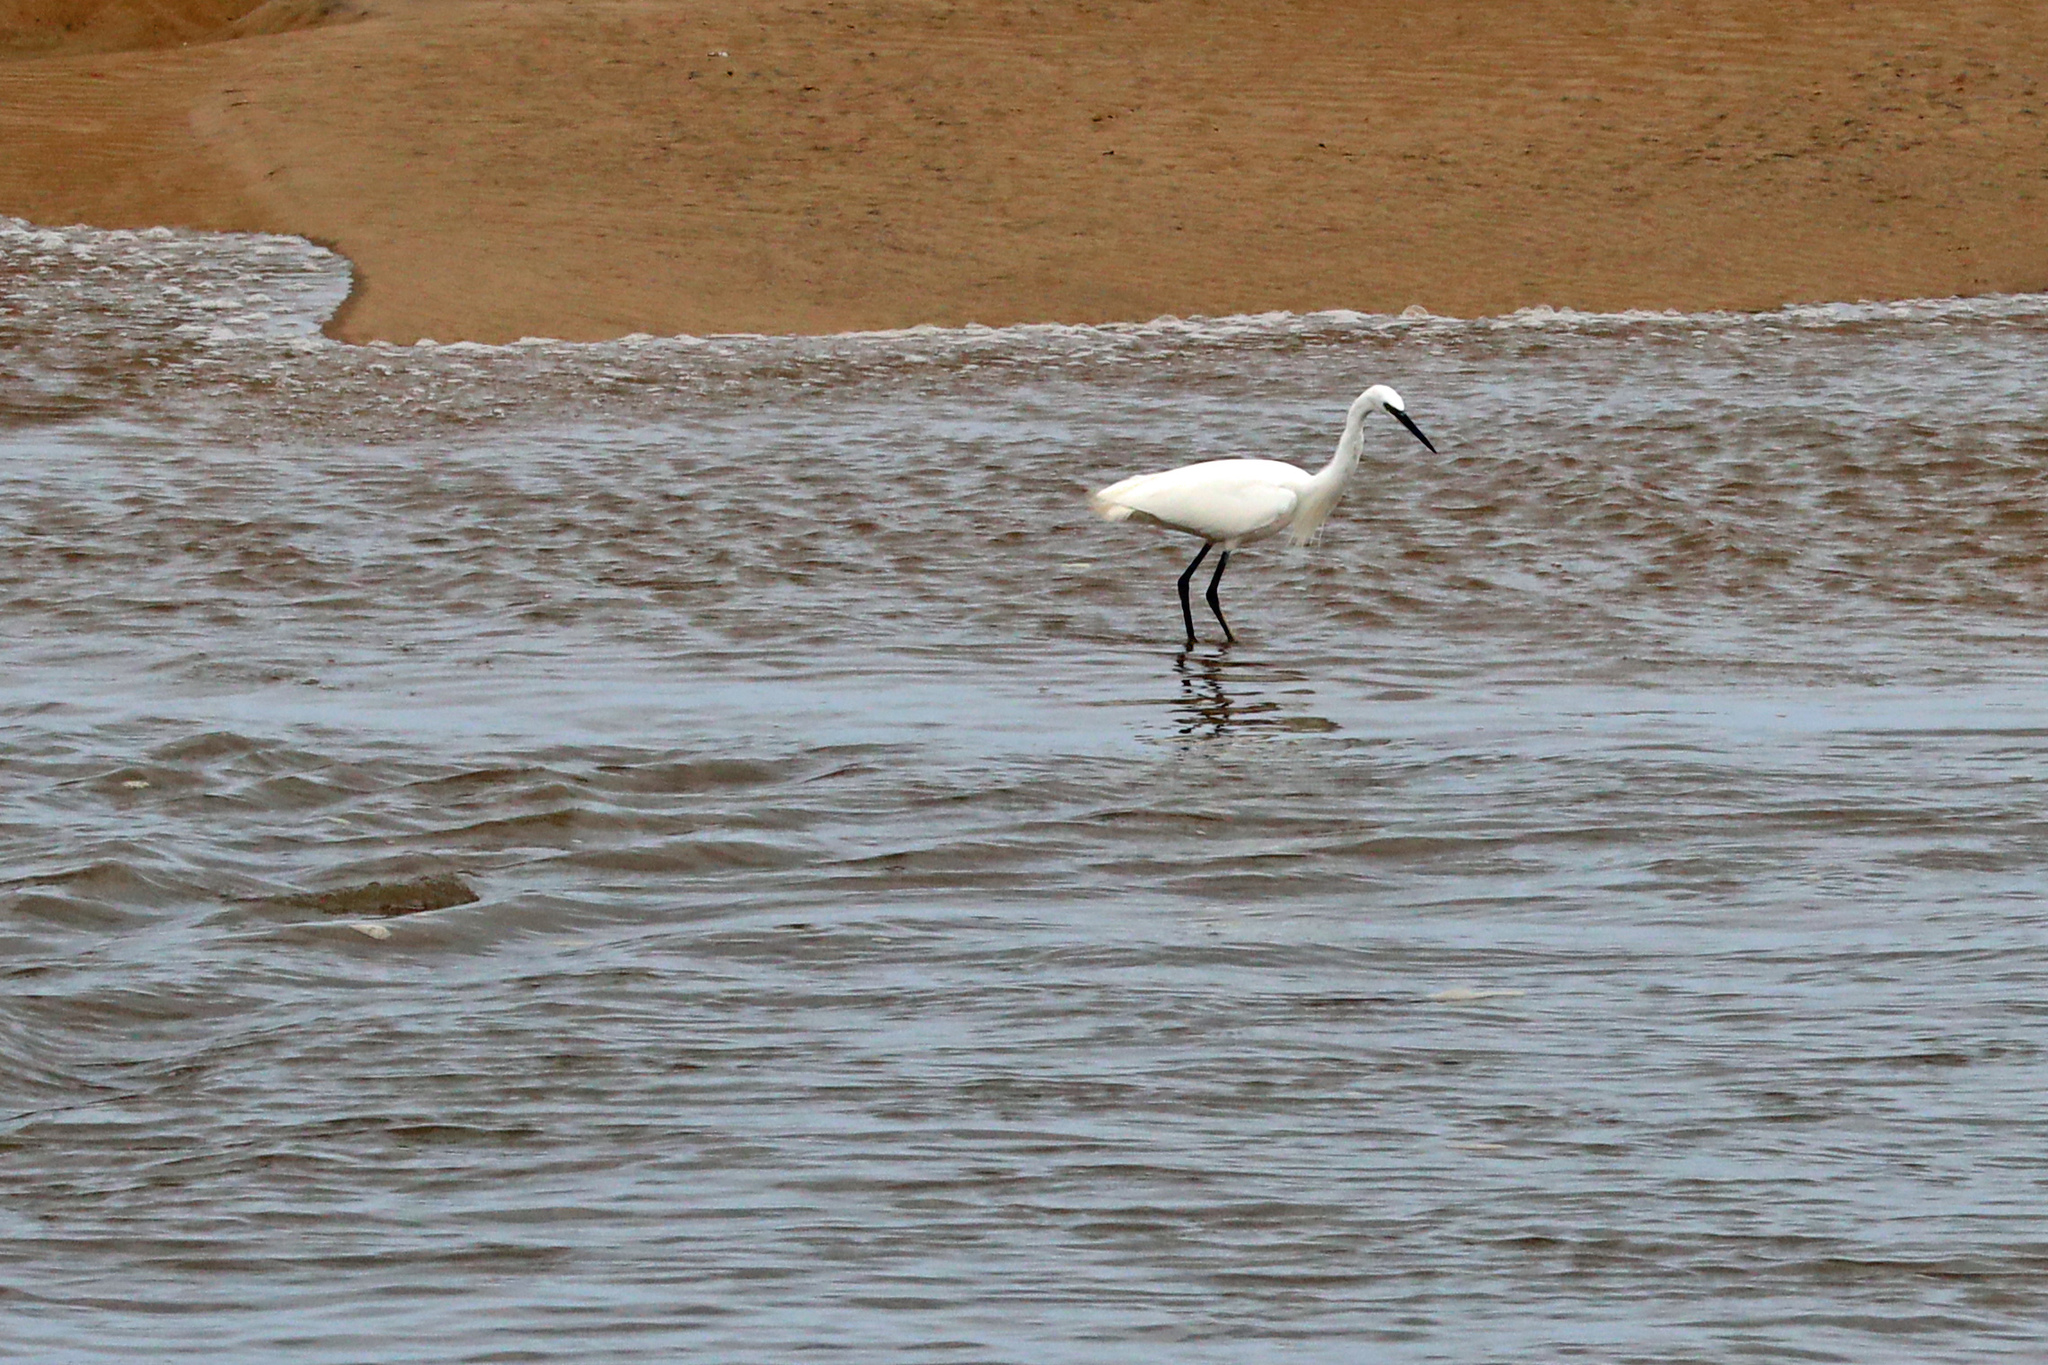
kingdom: Animalia
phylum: Chordata
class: Aves
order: Pelecaniformes
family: Ardeidae
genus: Egretta
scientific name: Egretta garzetta
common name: Little egret
